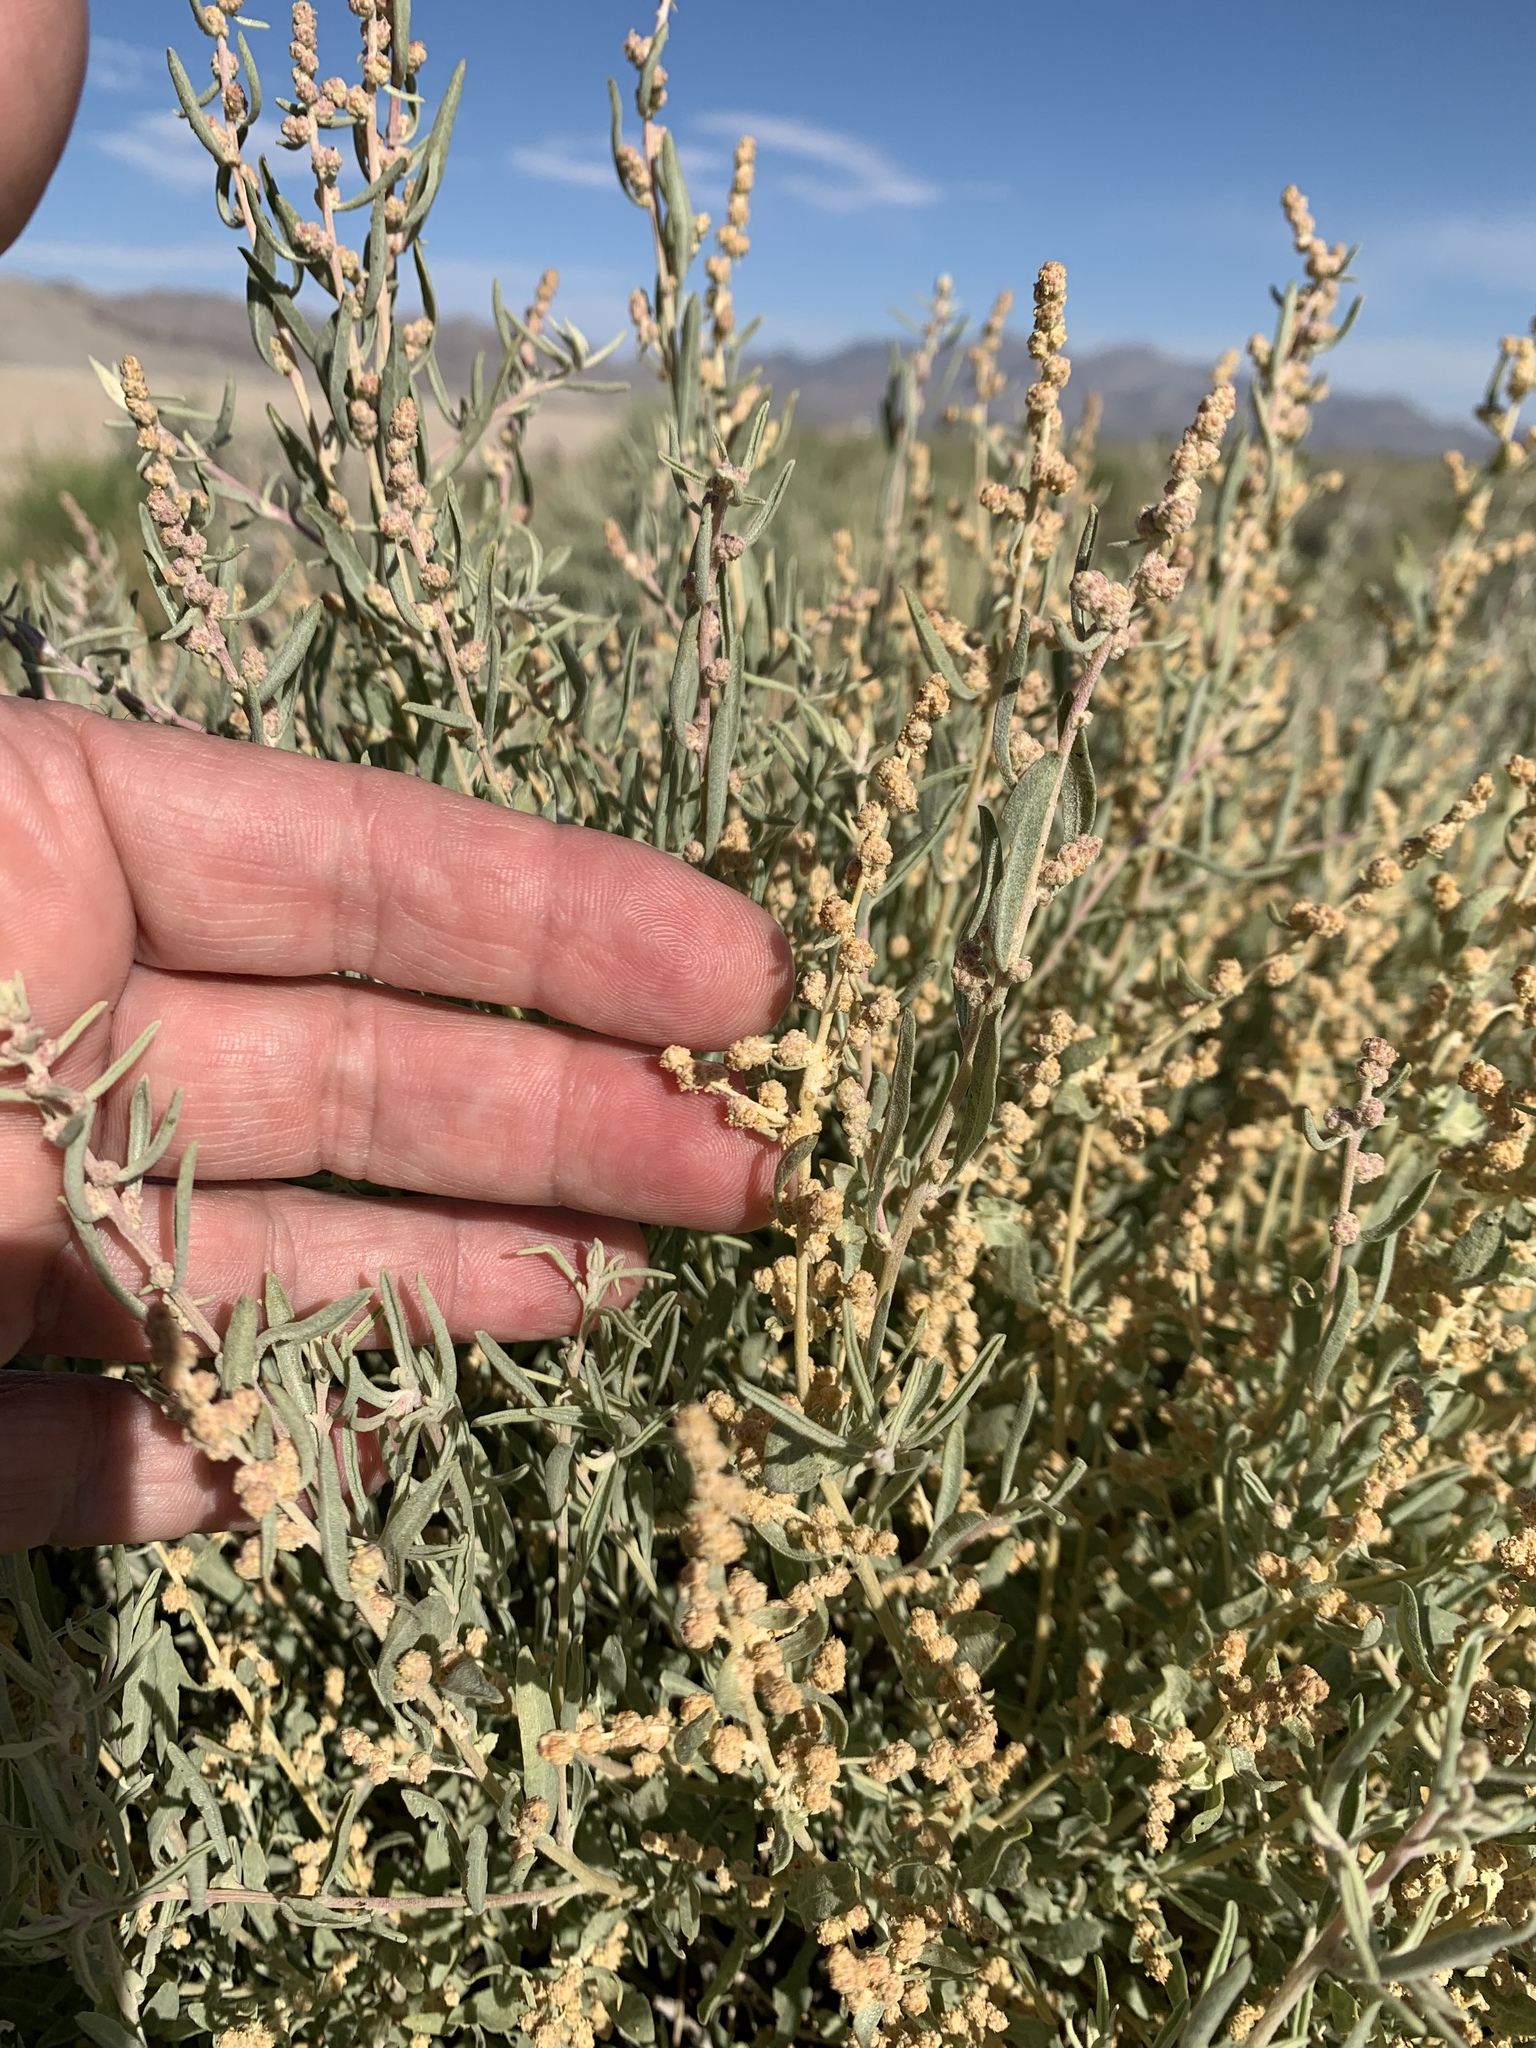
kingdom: Plantae
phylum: Tracheophyta
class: Magnoliopsida
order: Caryophyllales
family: Amaranthaceae
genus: Atriplex
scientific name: Atriplex canescens
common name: Four-wing saltbush
